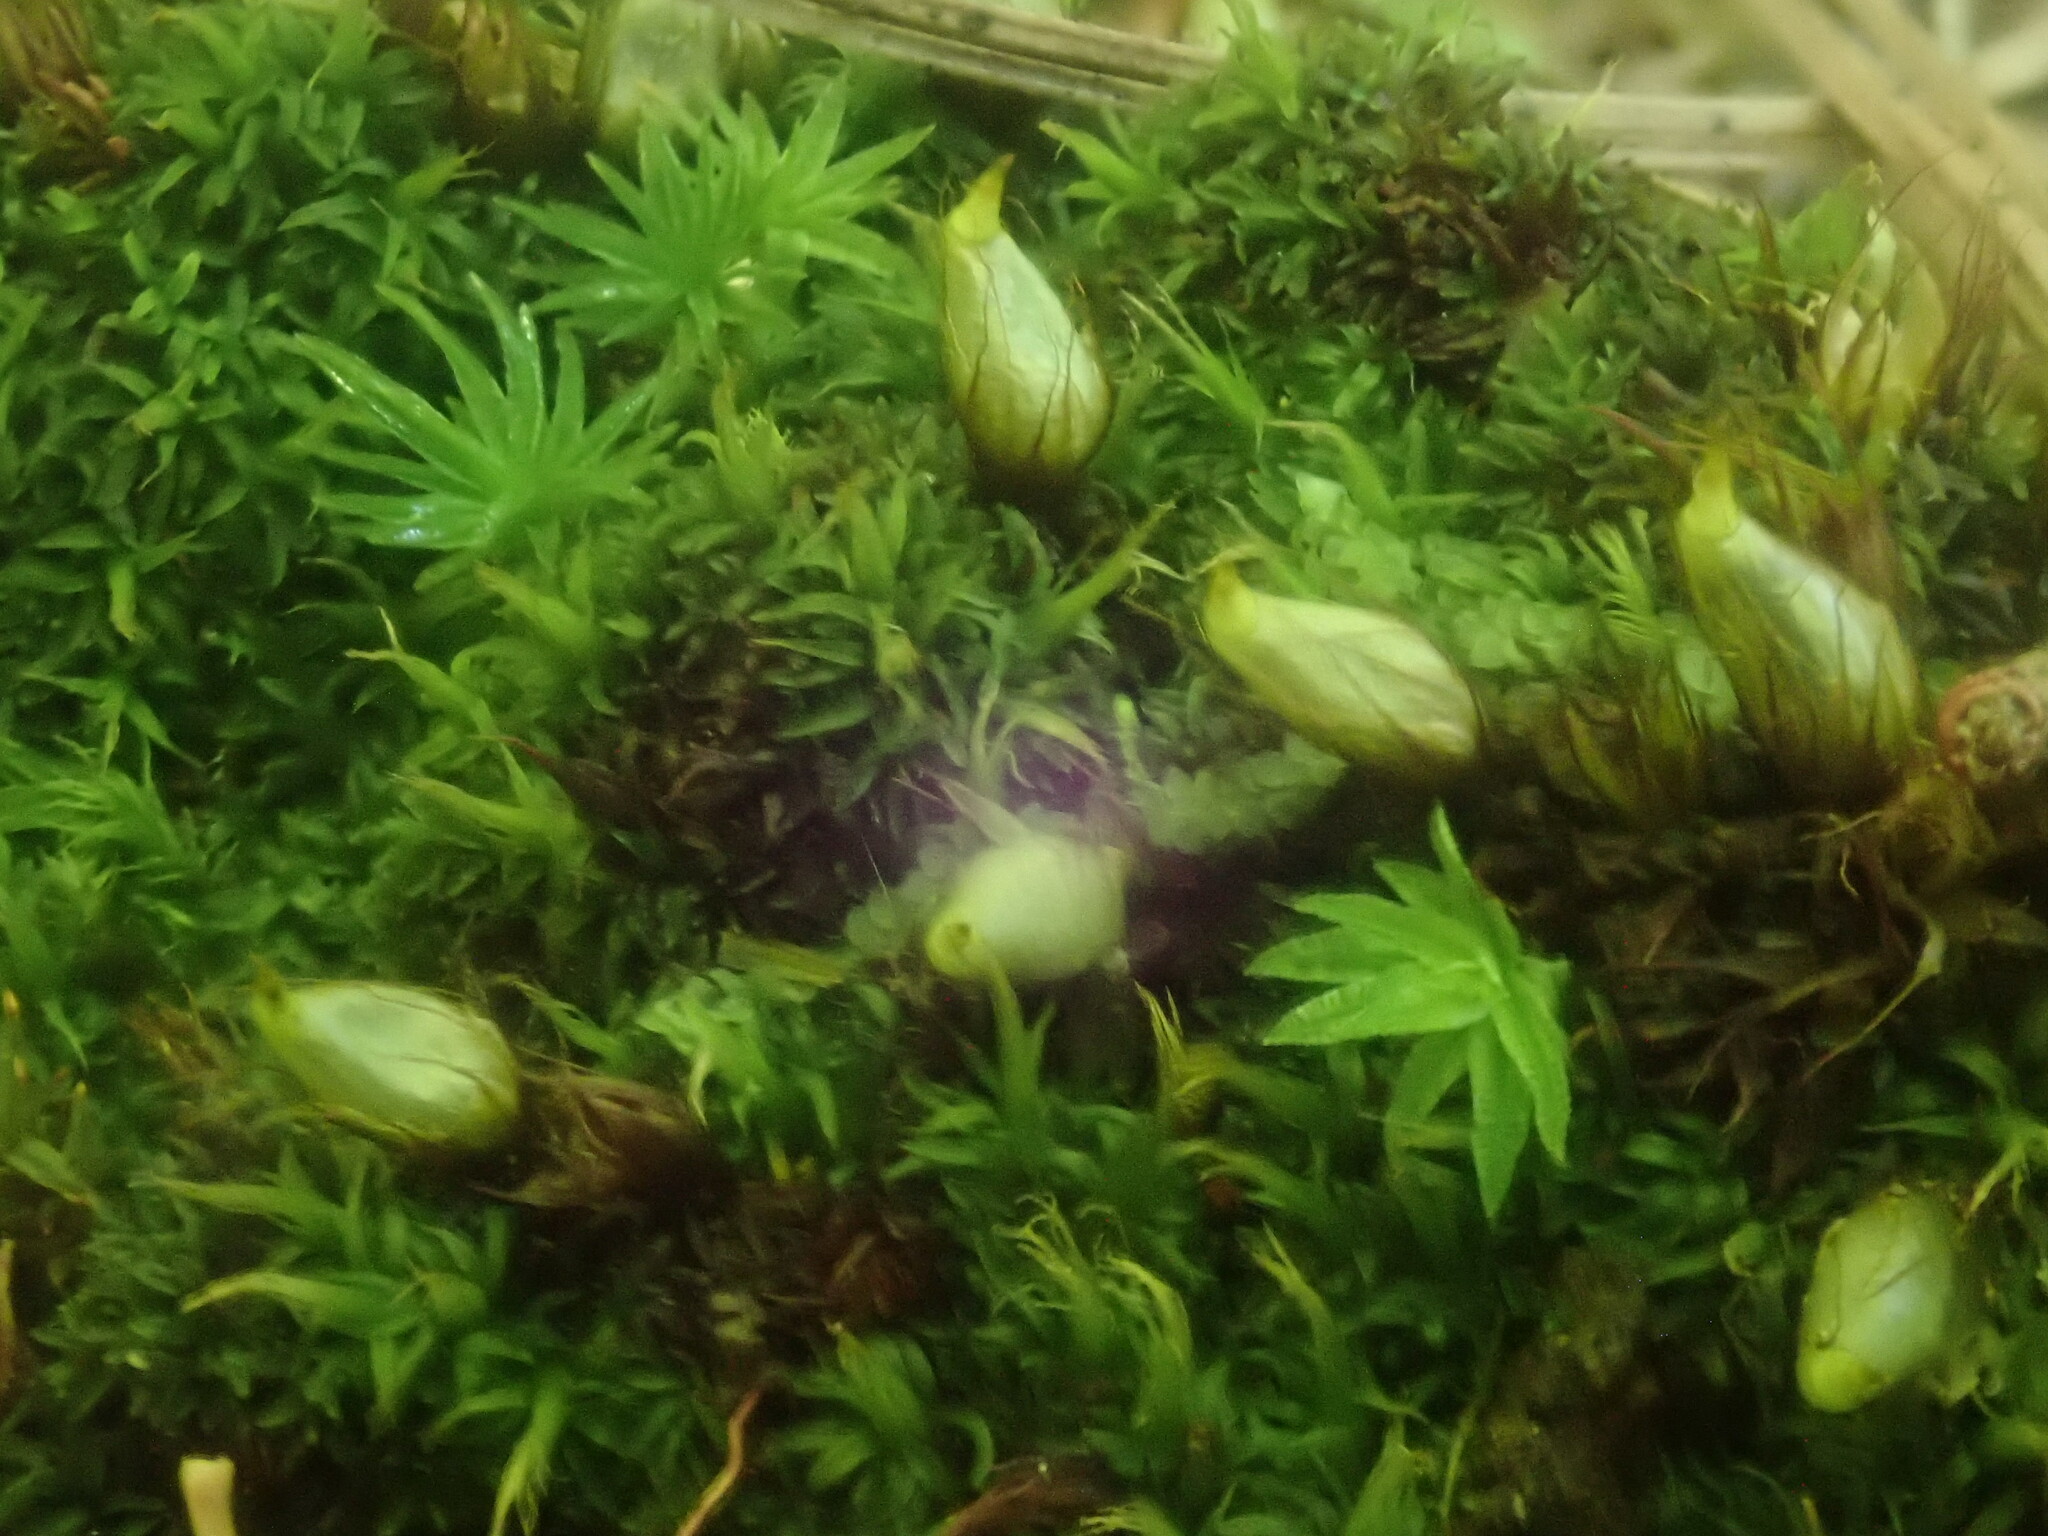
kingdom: Plantae
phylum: Bryophyta
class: Bryopsida
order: Diphysciales
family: Diphysciaceae
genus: Diphyscium
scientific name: Diphyscium foliosum
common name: Nut moss
